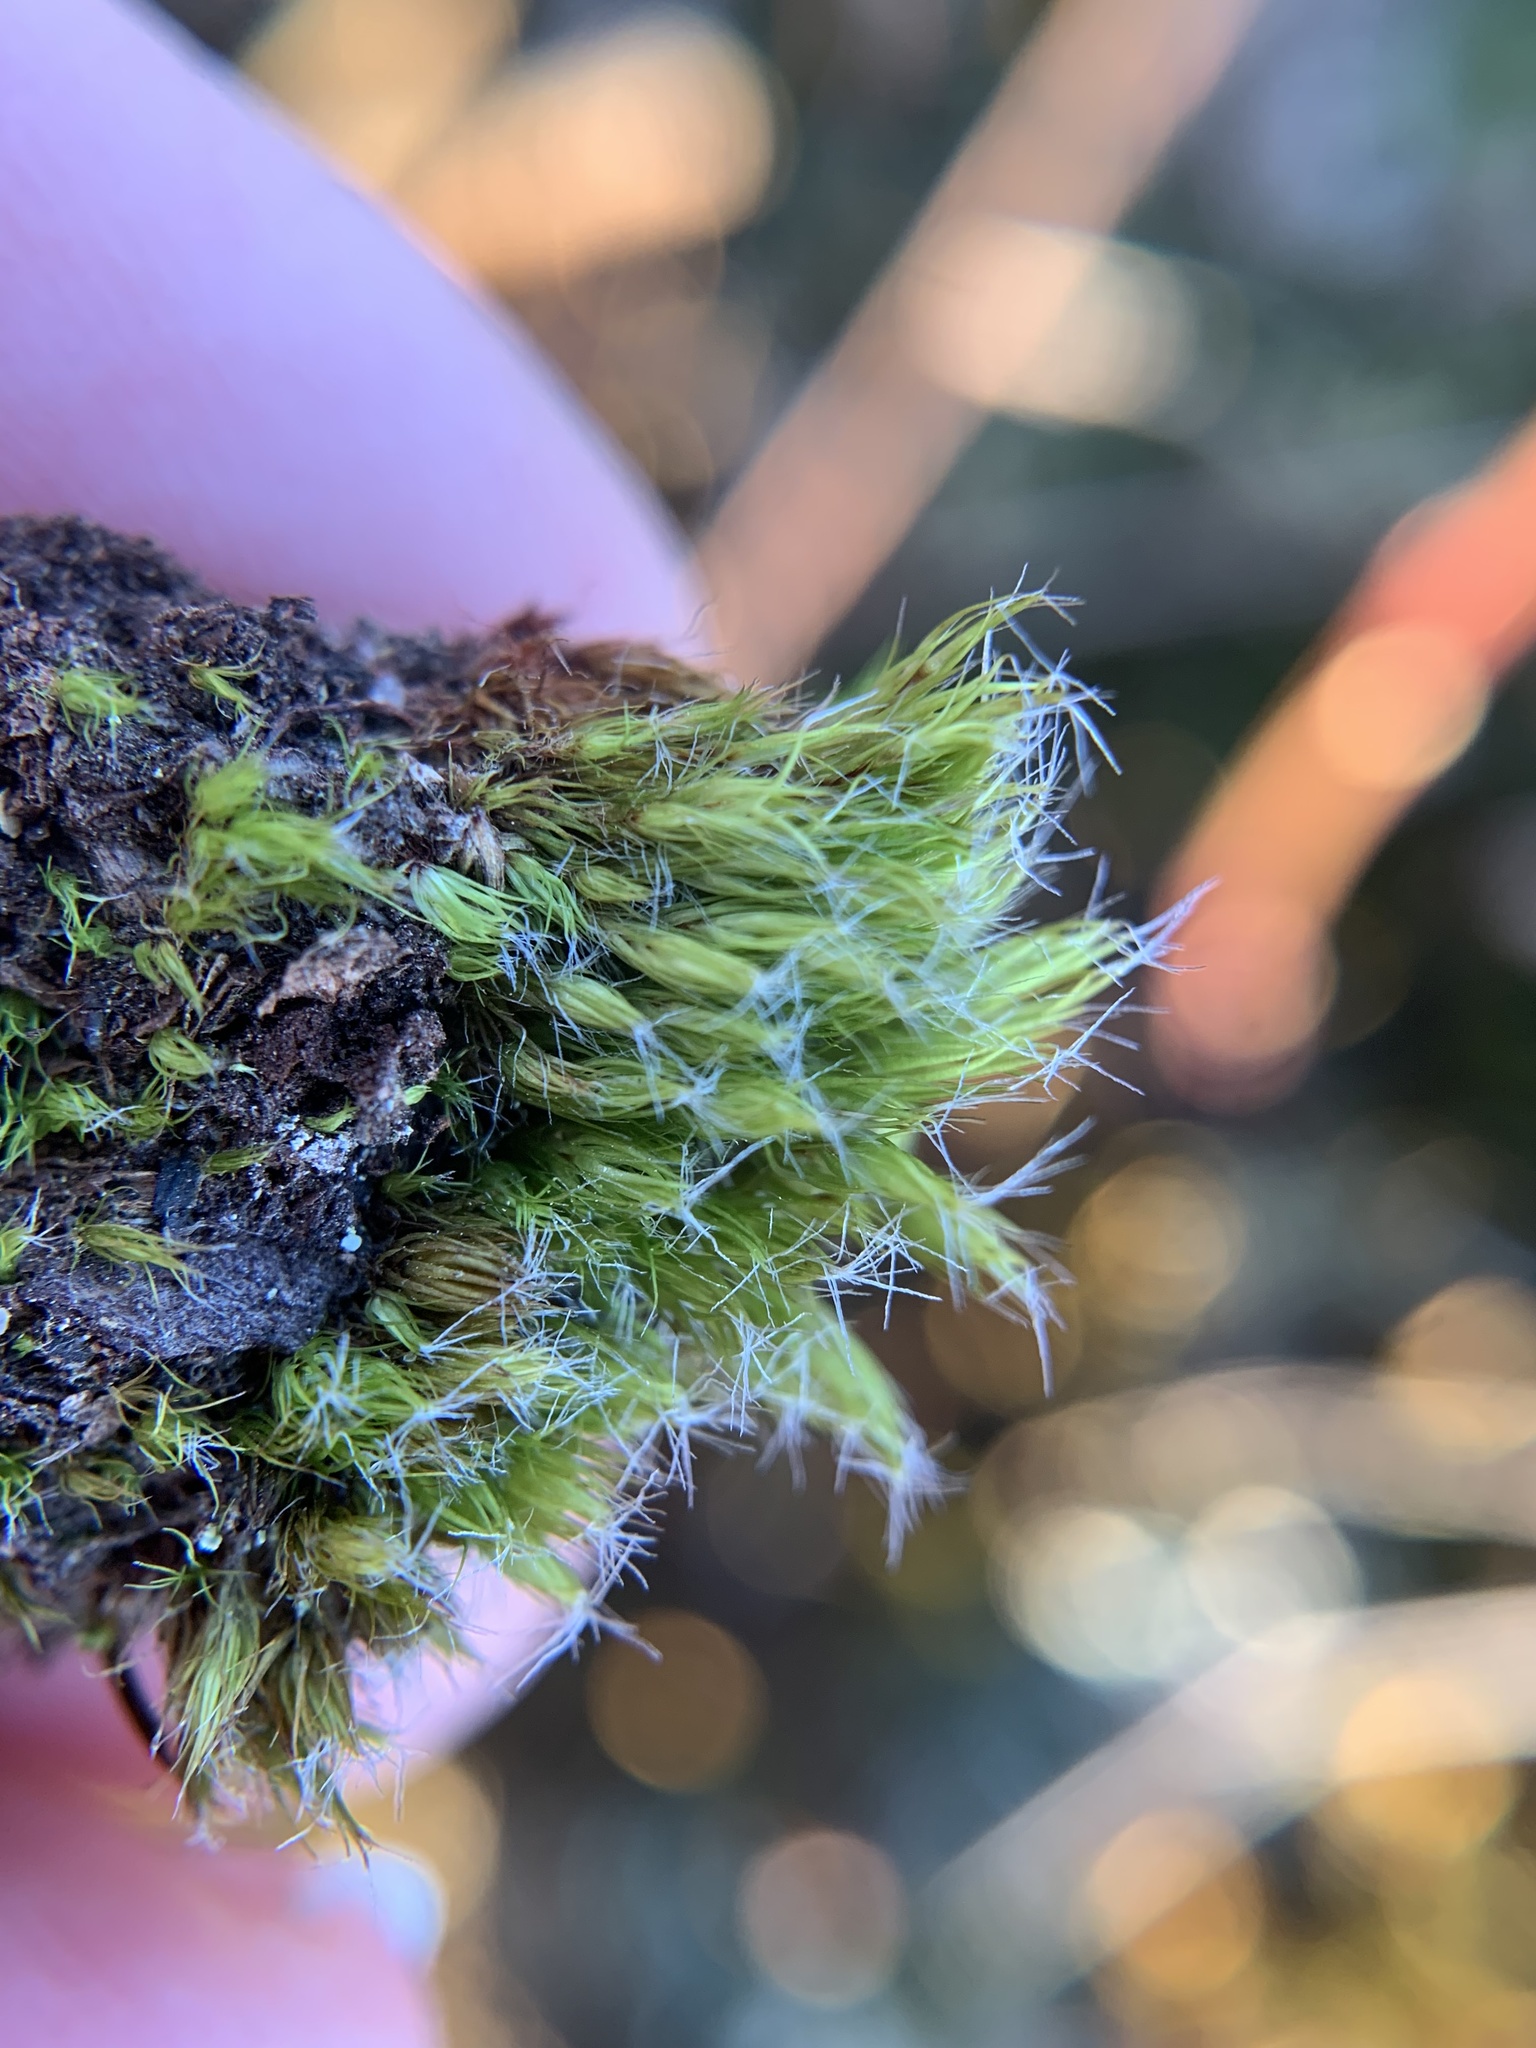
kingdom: Plantae
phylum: Bryophyta
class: Bryopsida
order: Dicranales
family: Leucobryaceae
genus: Campylopus
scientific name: Campylopus introflexus
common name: Heath star moss
